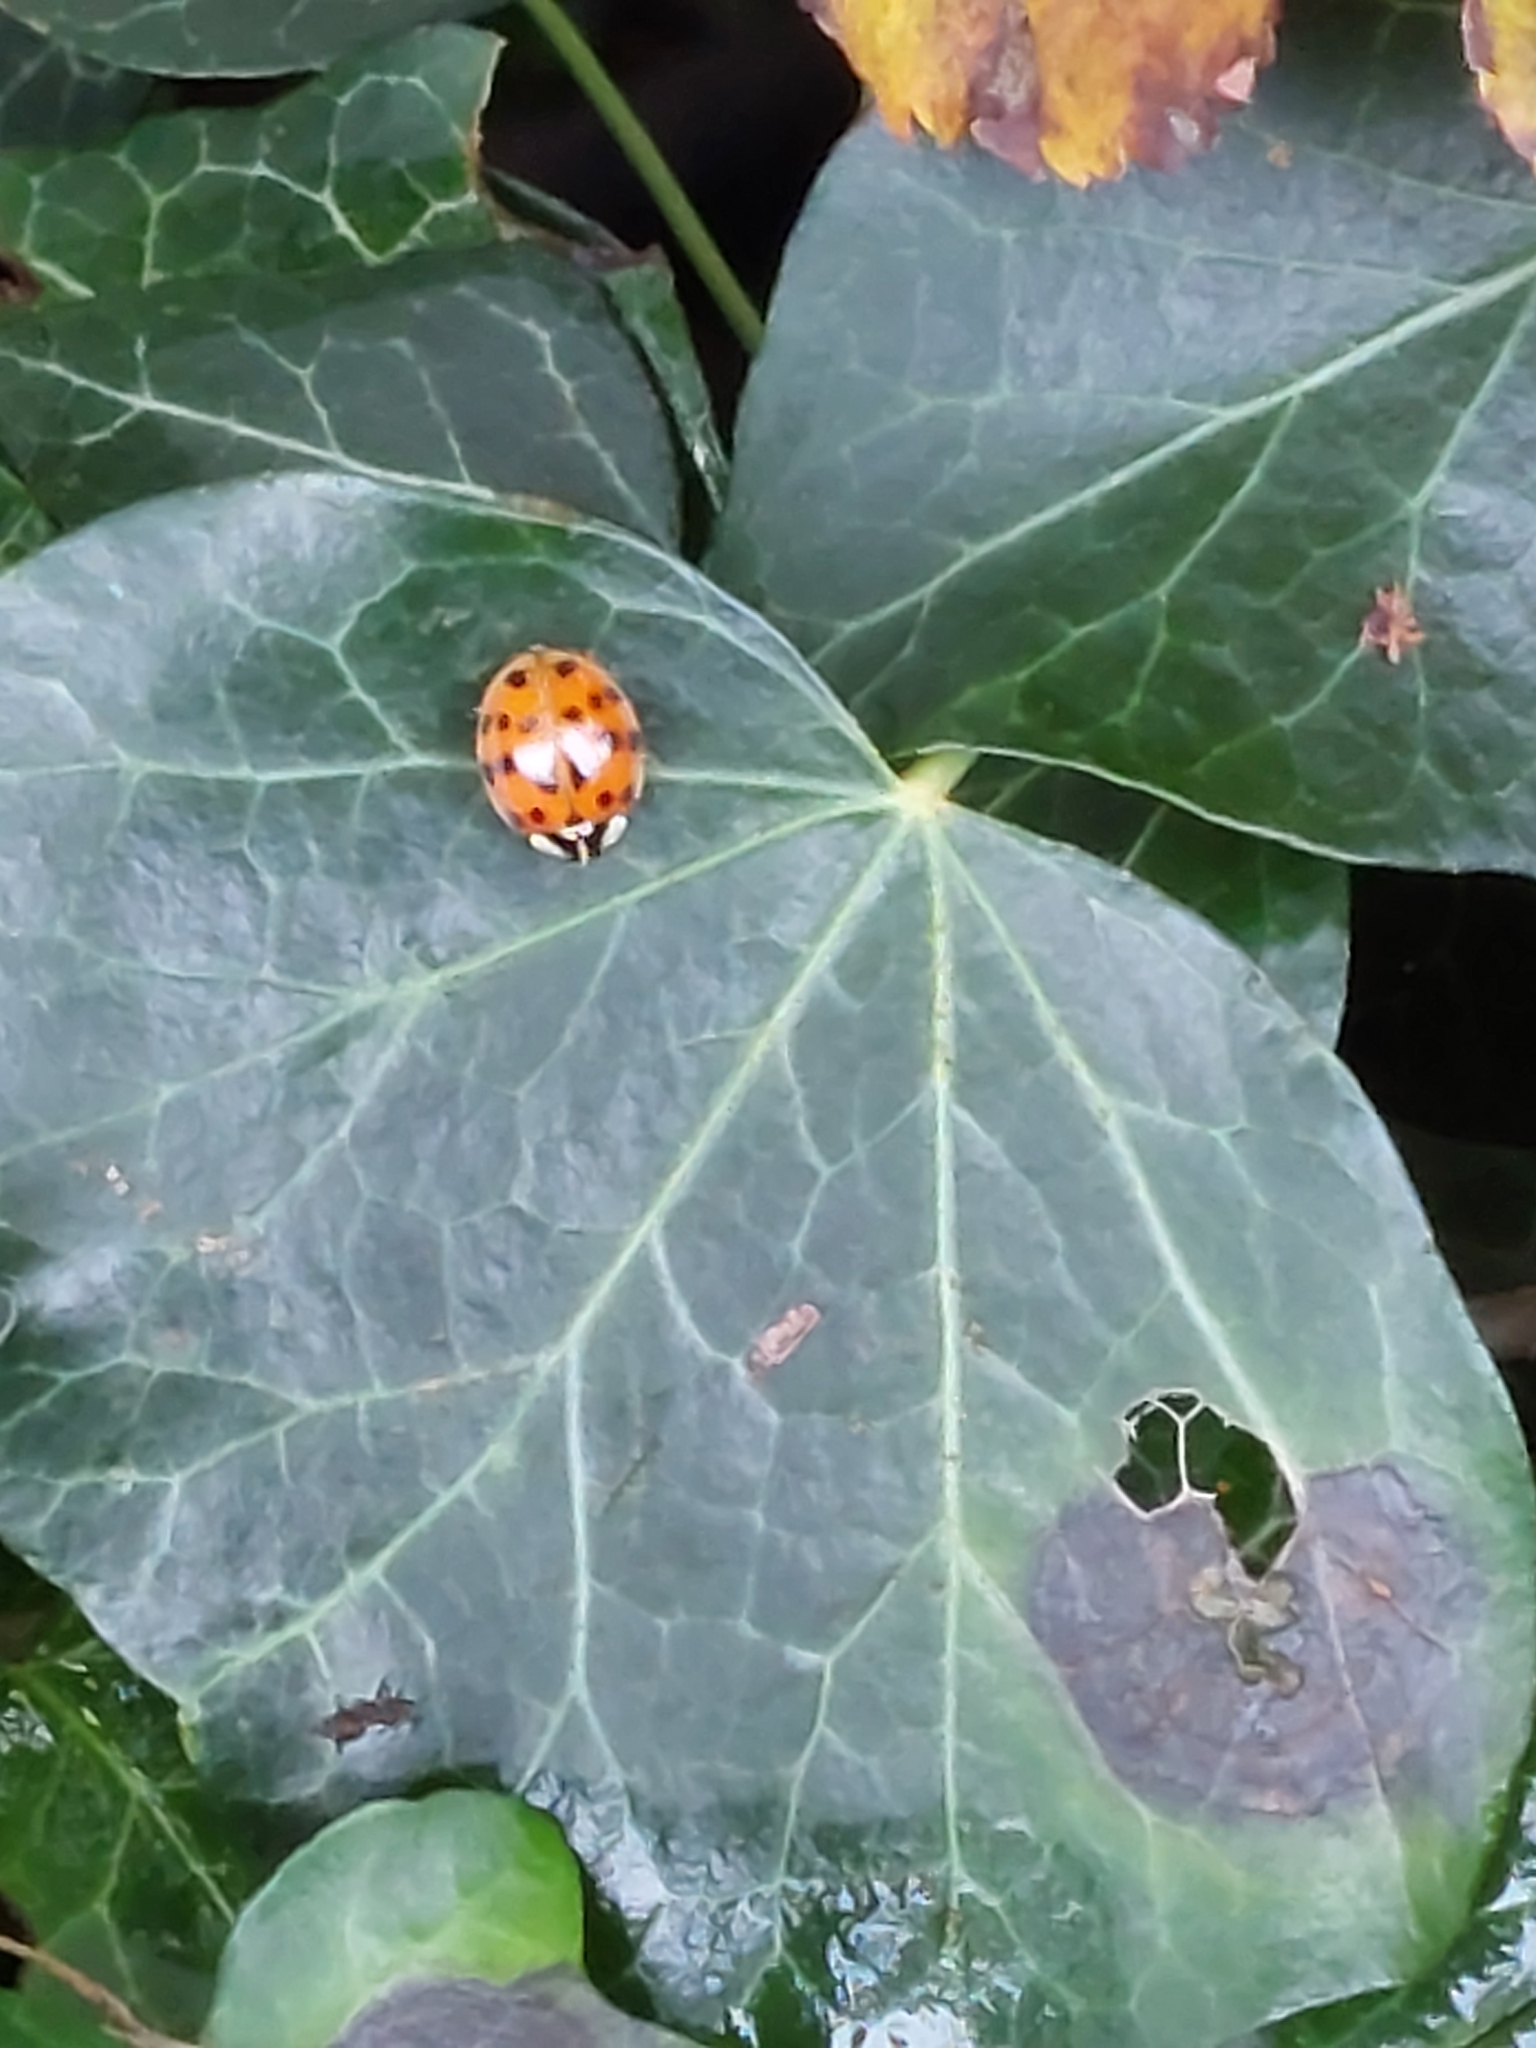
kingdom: Animalia
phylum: Arthropoda
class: Insecta
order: Coleoptera
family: Coccinellidae
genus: Harmonia
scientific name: Harmonia axyridis
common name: Harlequin ladybird
